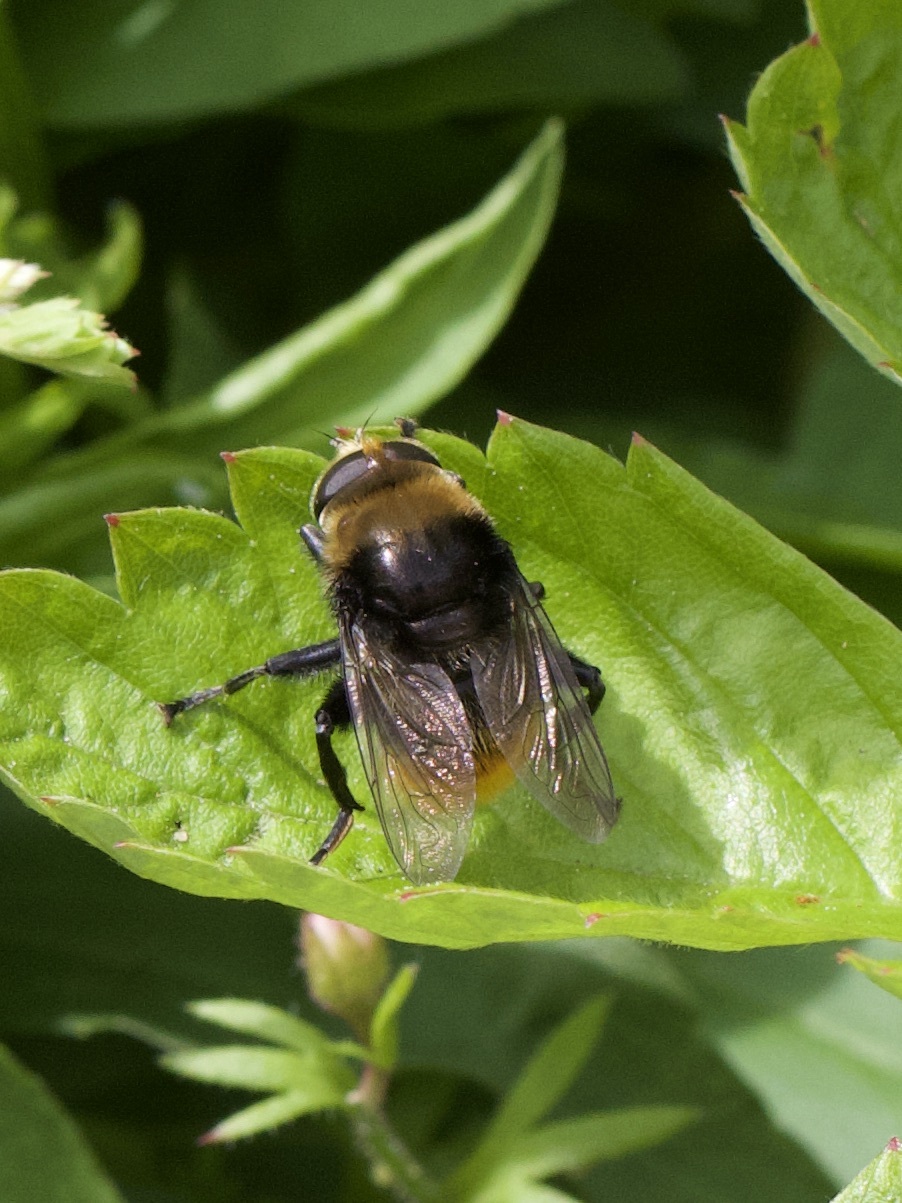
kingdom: Animalia
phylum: Arthropoda
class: Insecta
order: Diptera
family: Syrphidae
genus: Merodon
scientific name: Merodon equestris
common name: Greater bulb-fly
